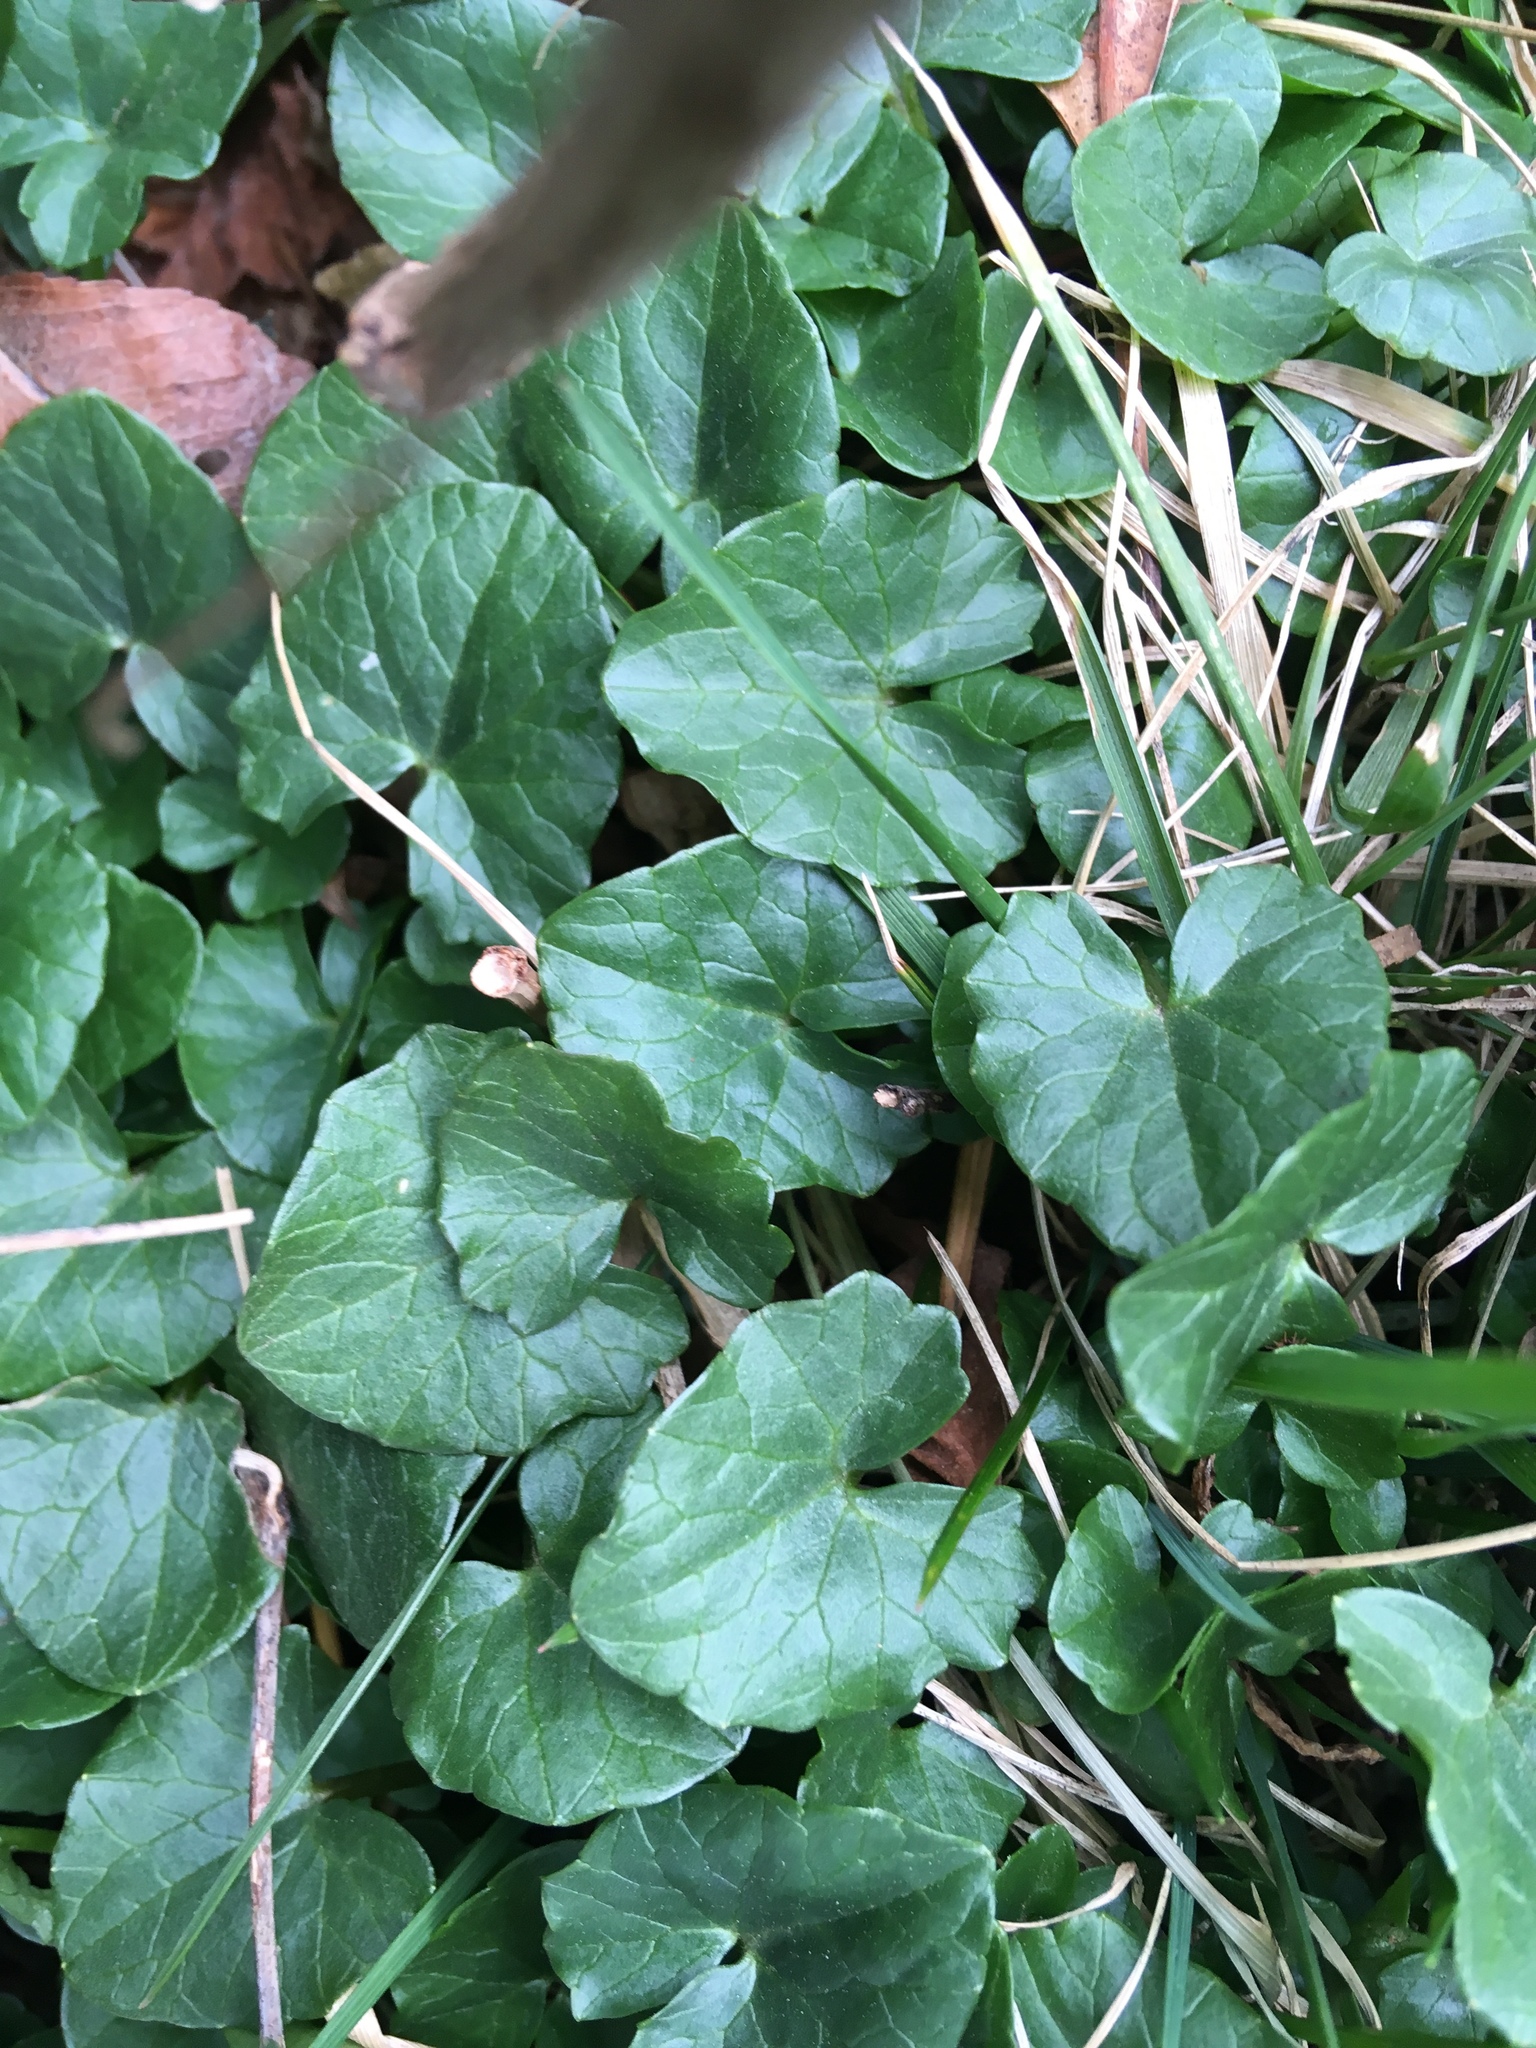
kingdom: Plantae
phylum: Tracheophyta
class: Magnoliopsida
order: Ranunculales
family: Ranunculaceae
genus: Ficaria
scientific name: Ficaria verna
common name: Lesser celandine
